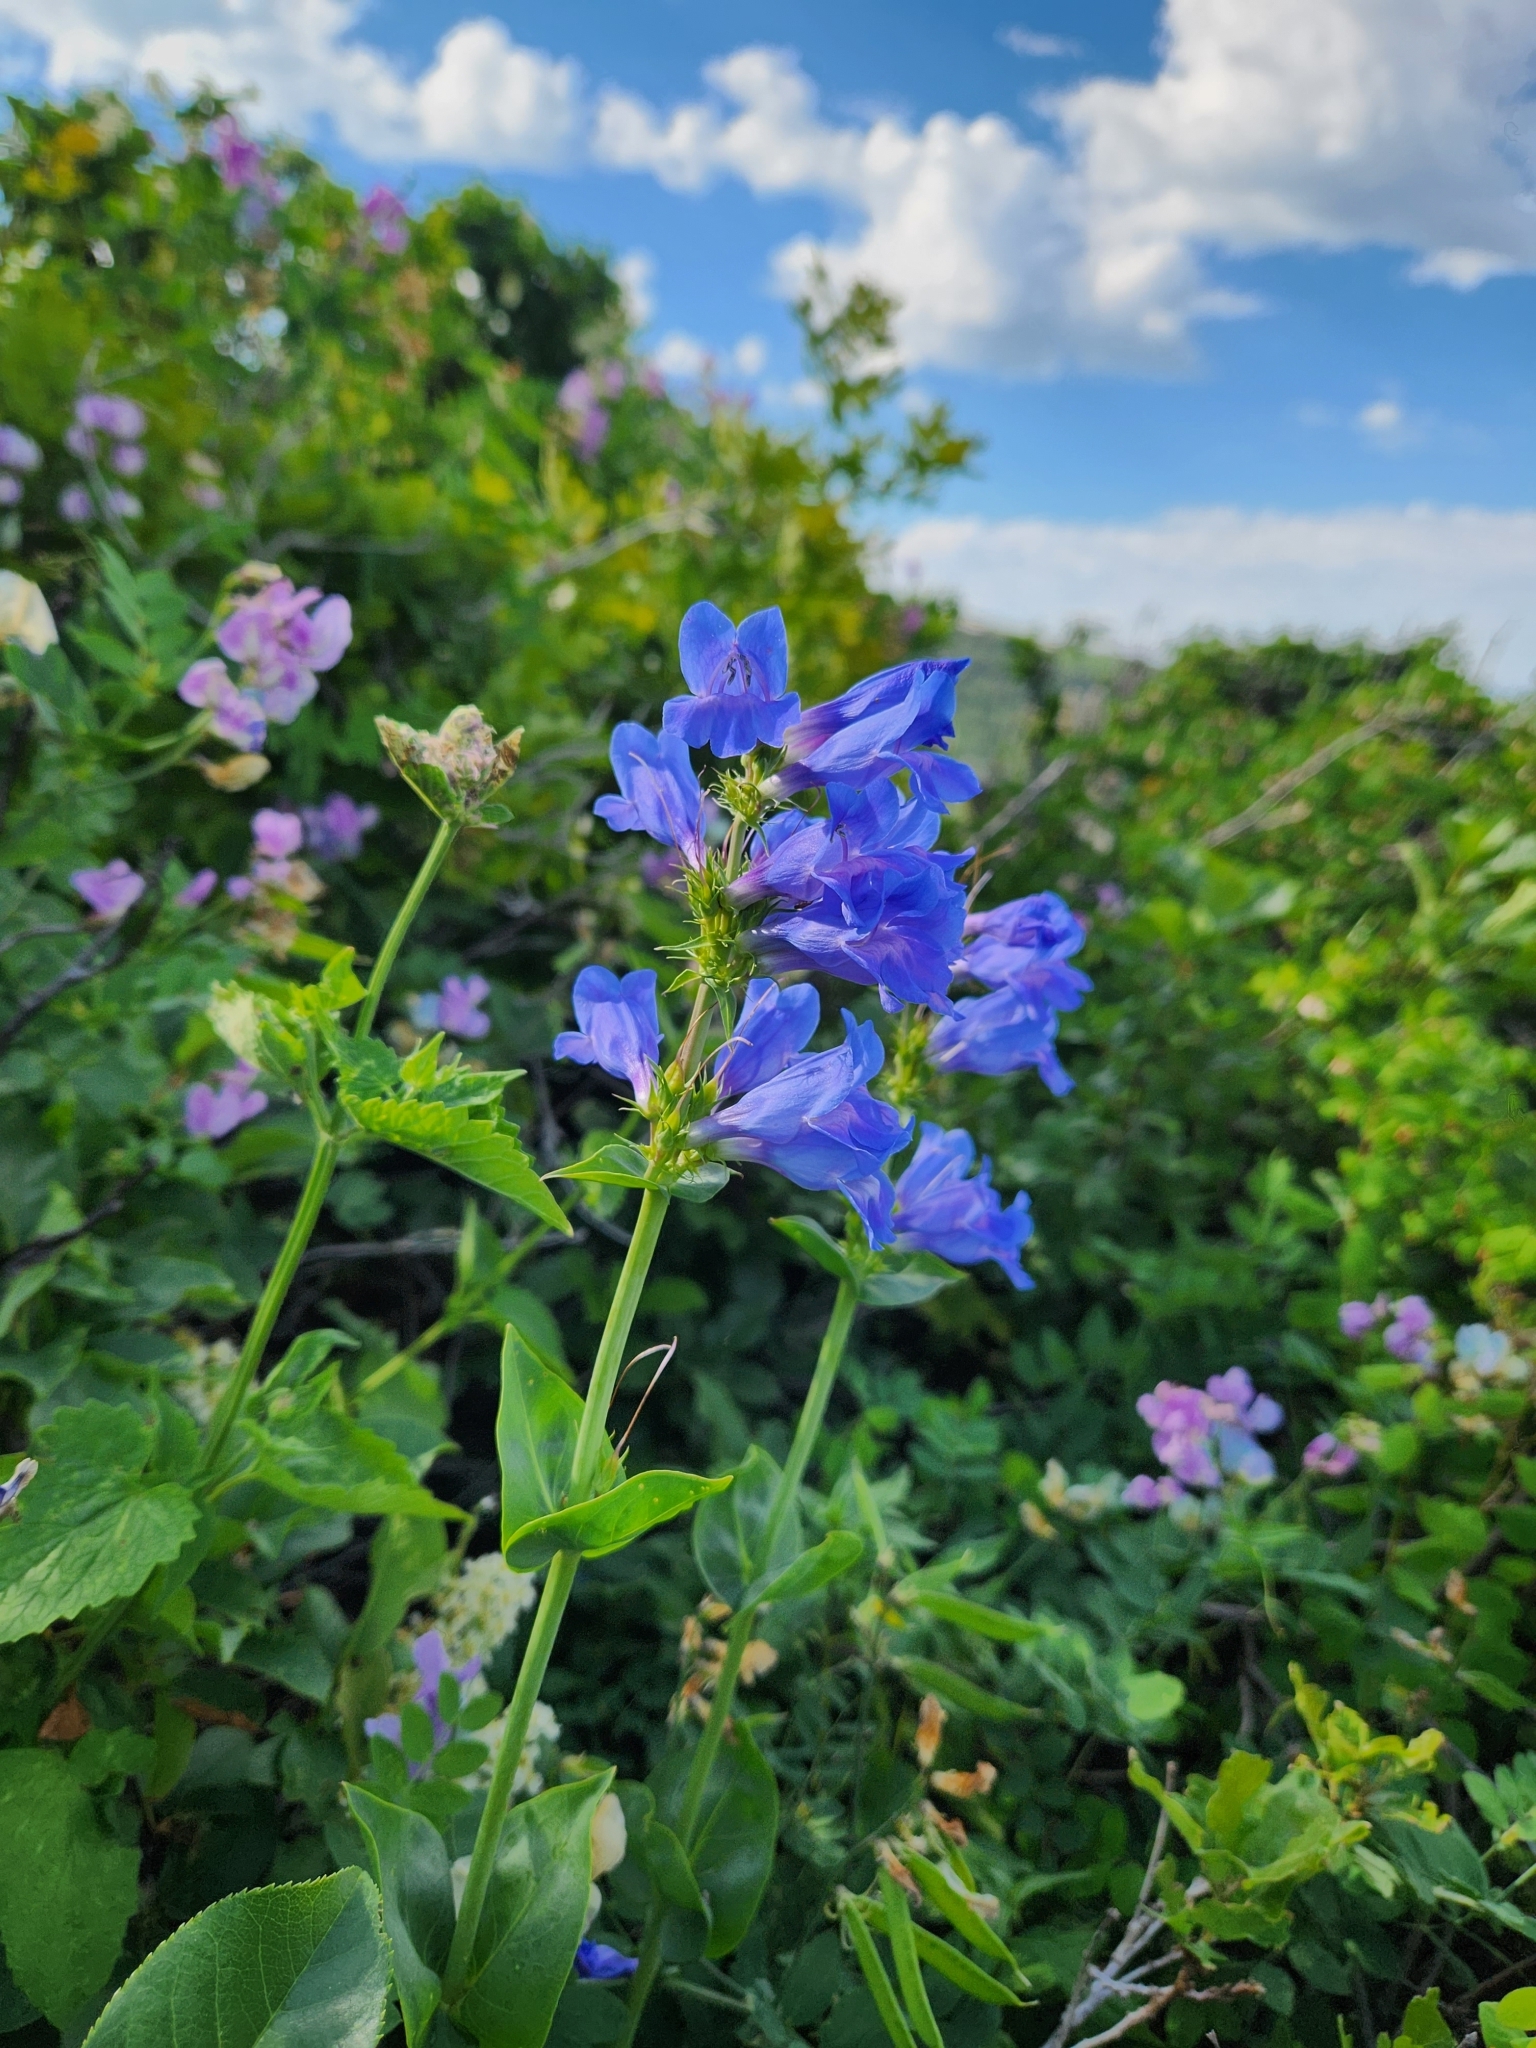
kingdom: Plantae
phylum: Tracheophyta
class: Magnoliopsida
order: Lamiales
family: Plantaginaceae
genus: Penstemon
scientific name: Penstemon cyananthus
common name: Wasatch penstemon
